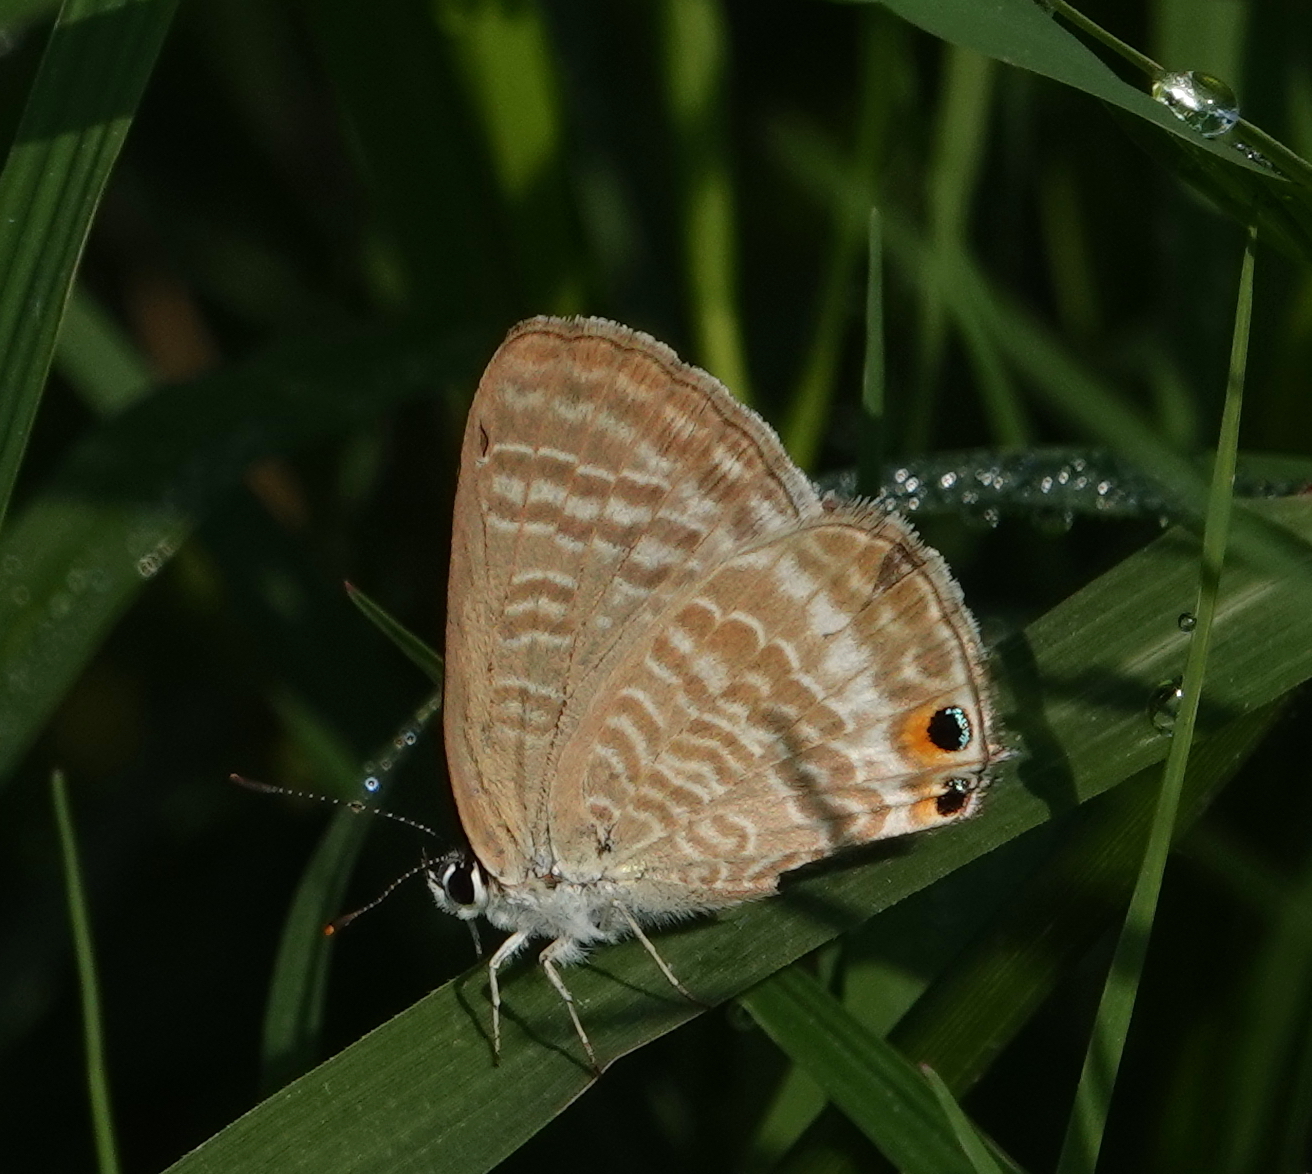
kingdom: Animalia
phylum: Arthropoda
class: Insecta
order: Lepidoptera
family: Lycaenidae
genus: Lampides
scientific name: Lampides boeticus
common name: Long-tailed blue
